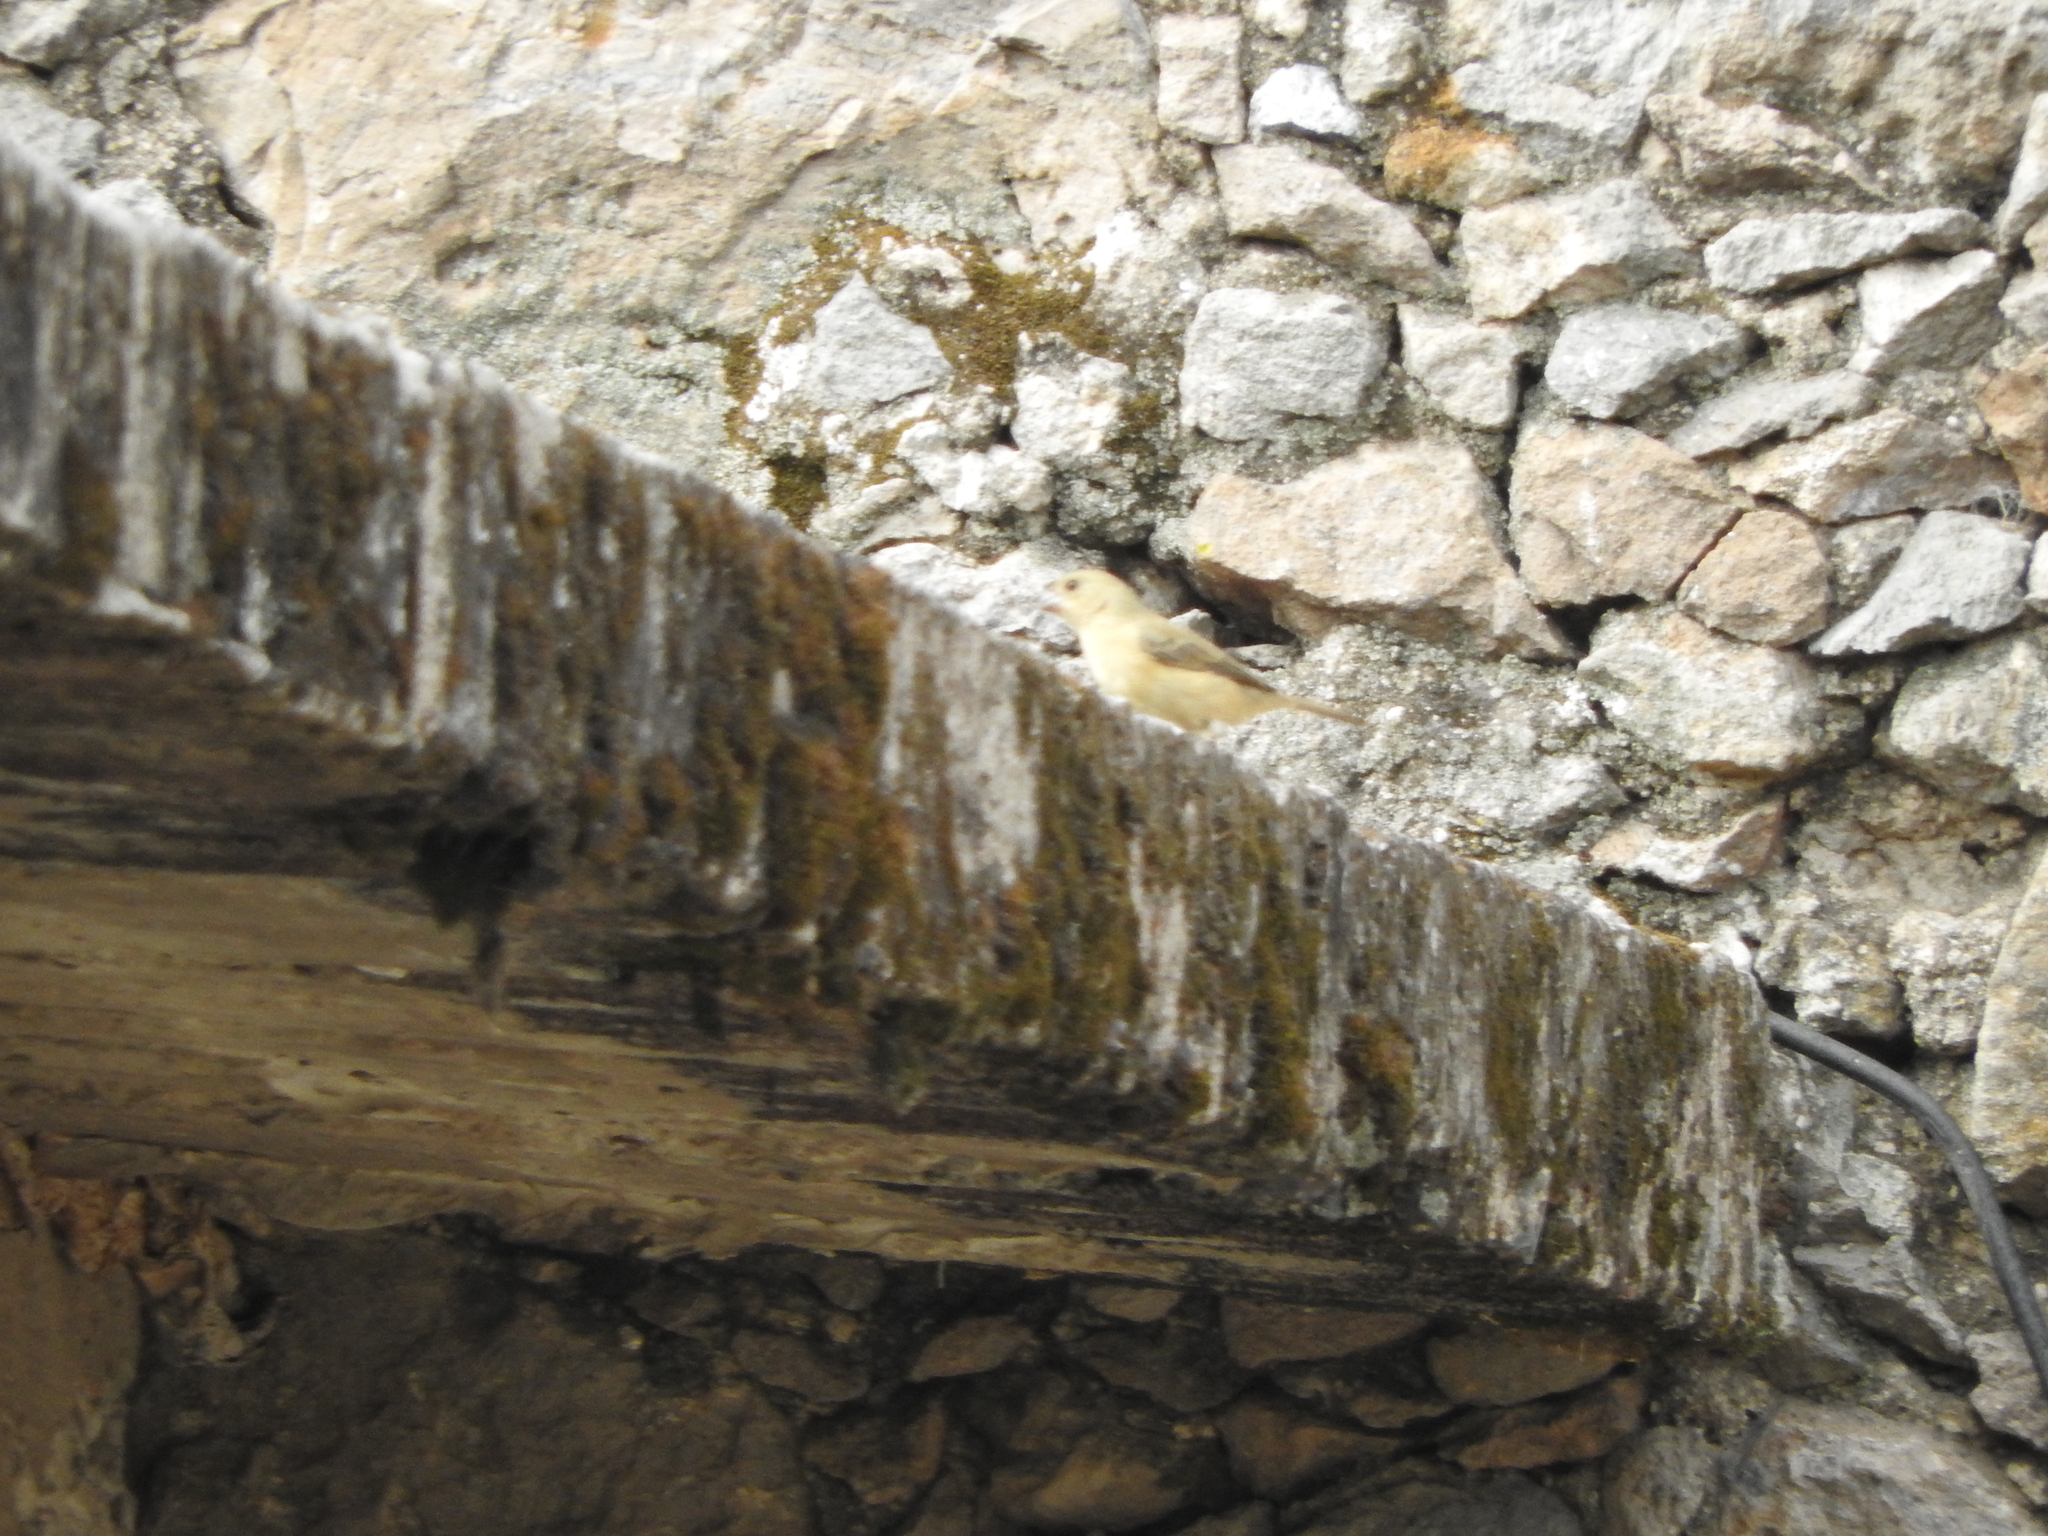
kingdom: Animalia
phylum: Chordata
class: Aves
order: Passeriformes
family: Thraupidae
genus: Sporophila
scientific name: Sporophila torqueola
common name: White-collared seedeater
